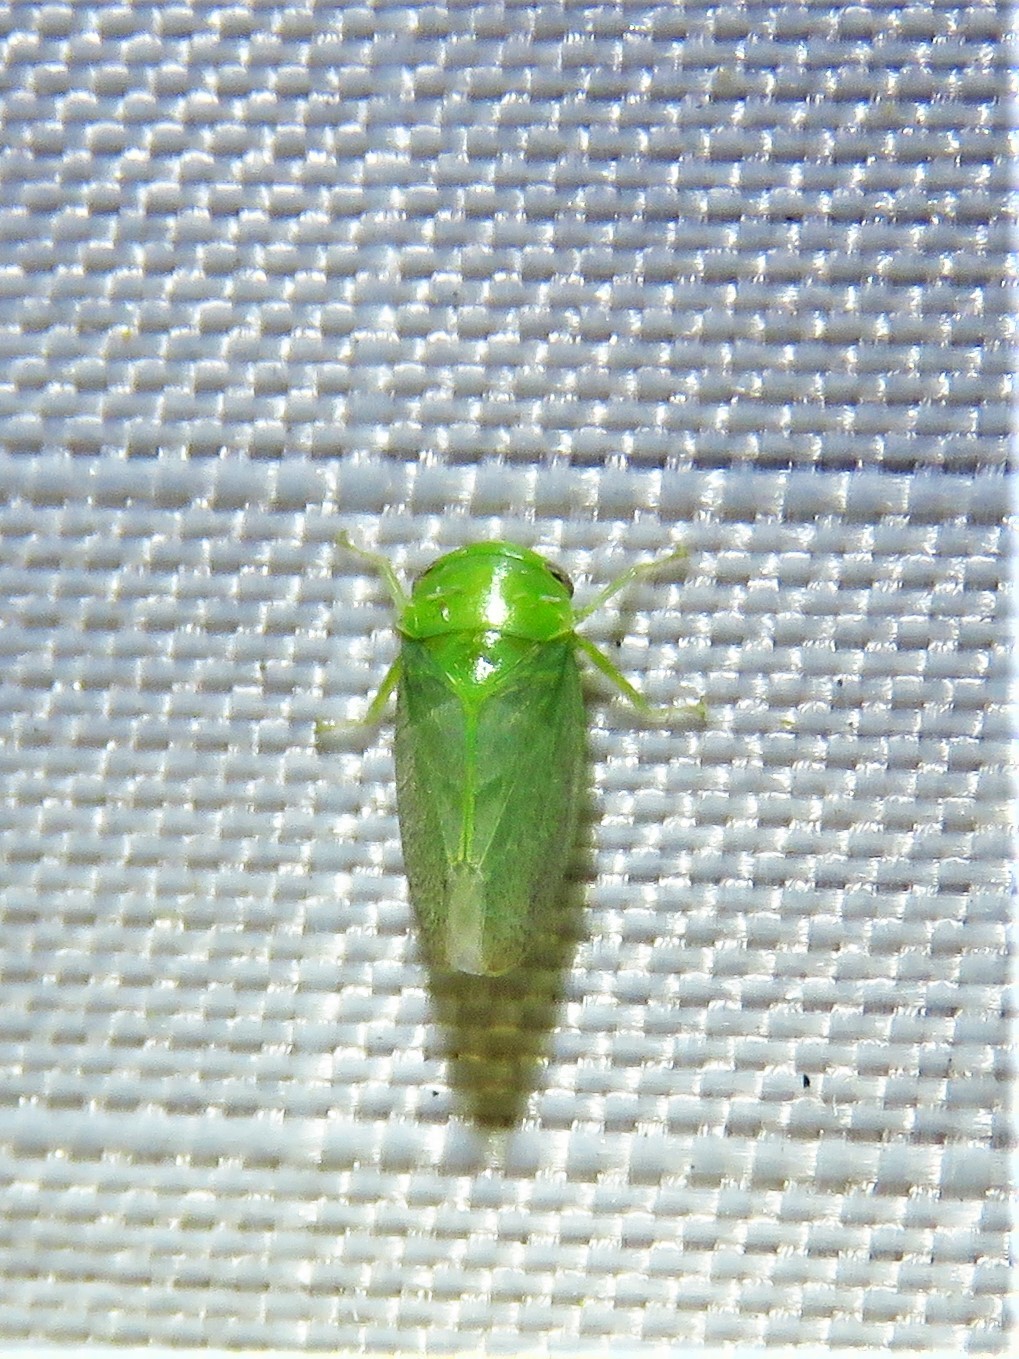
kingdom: Animalia
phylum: Arthropoda
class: Insecta
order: Hemiptera
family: Cicadellidae
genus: Penestragania
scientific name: Penestragania robusta
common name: Robust leafhopper
